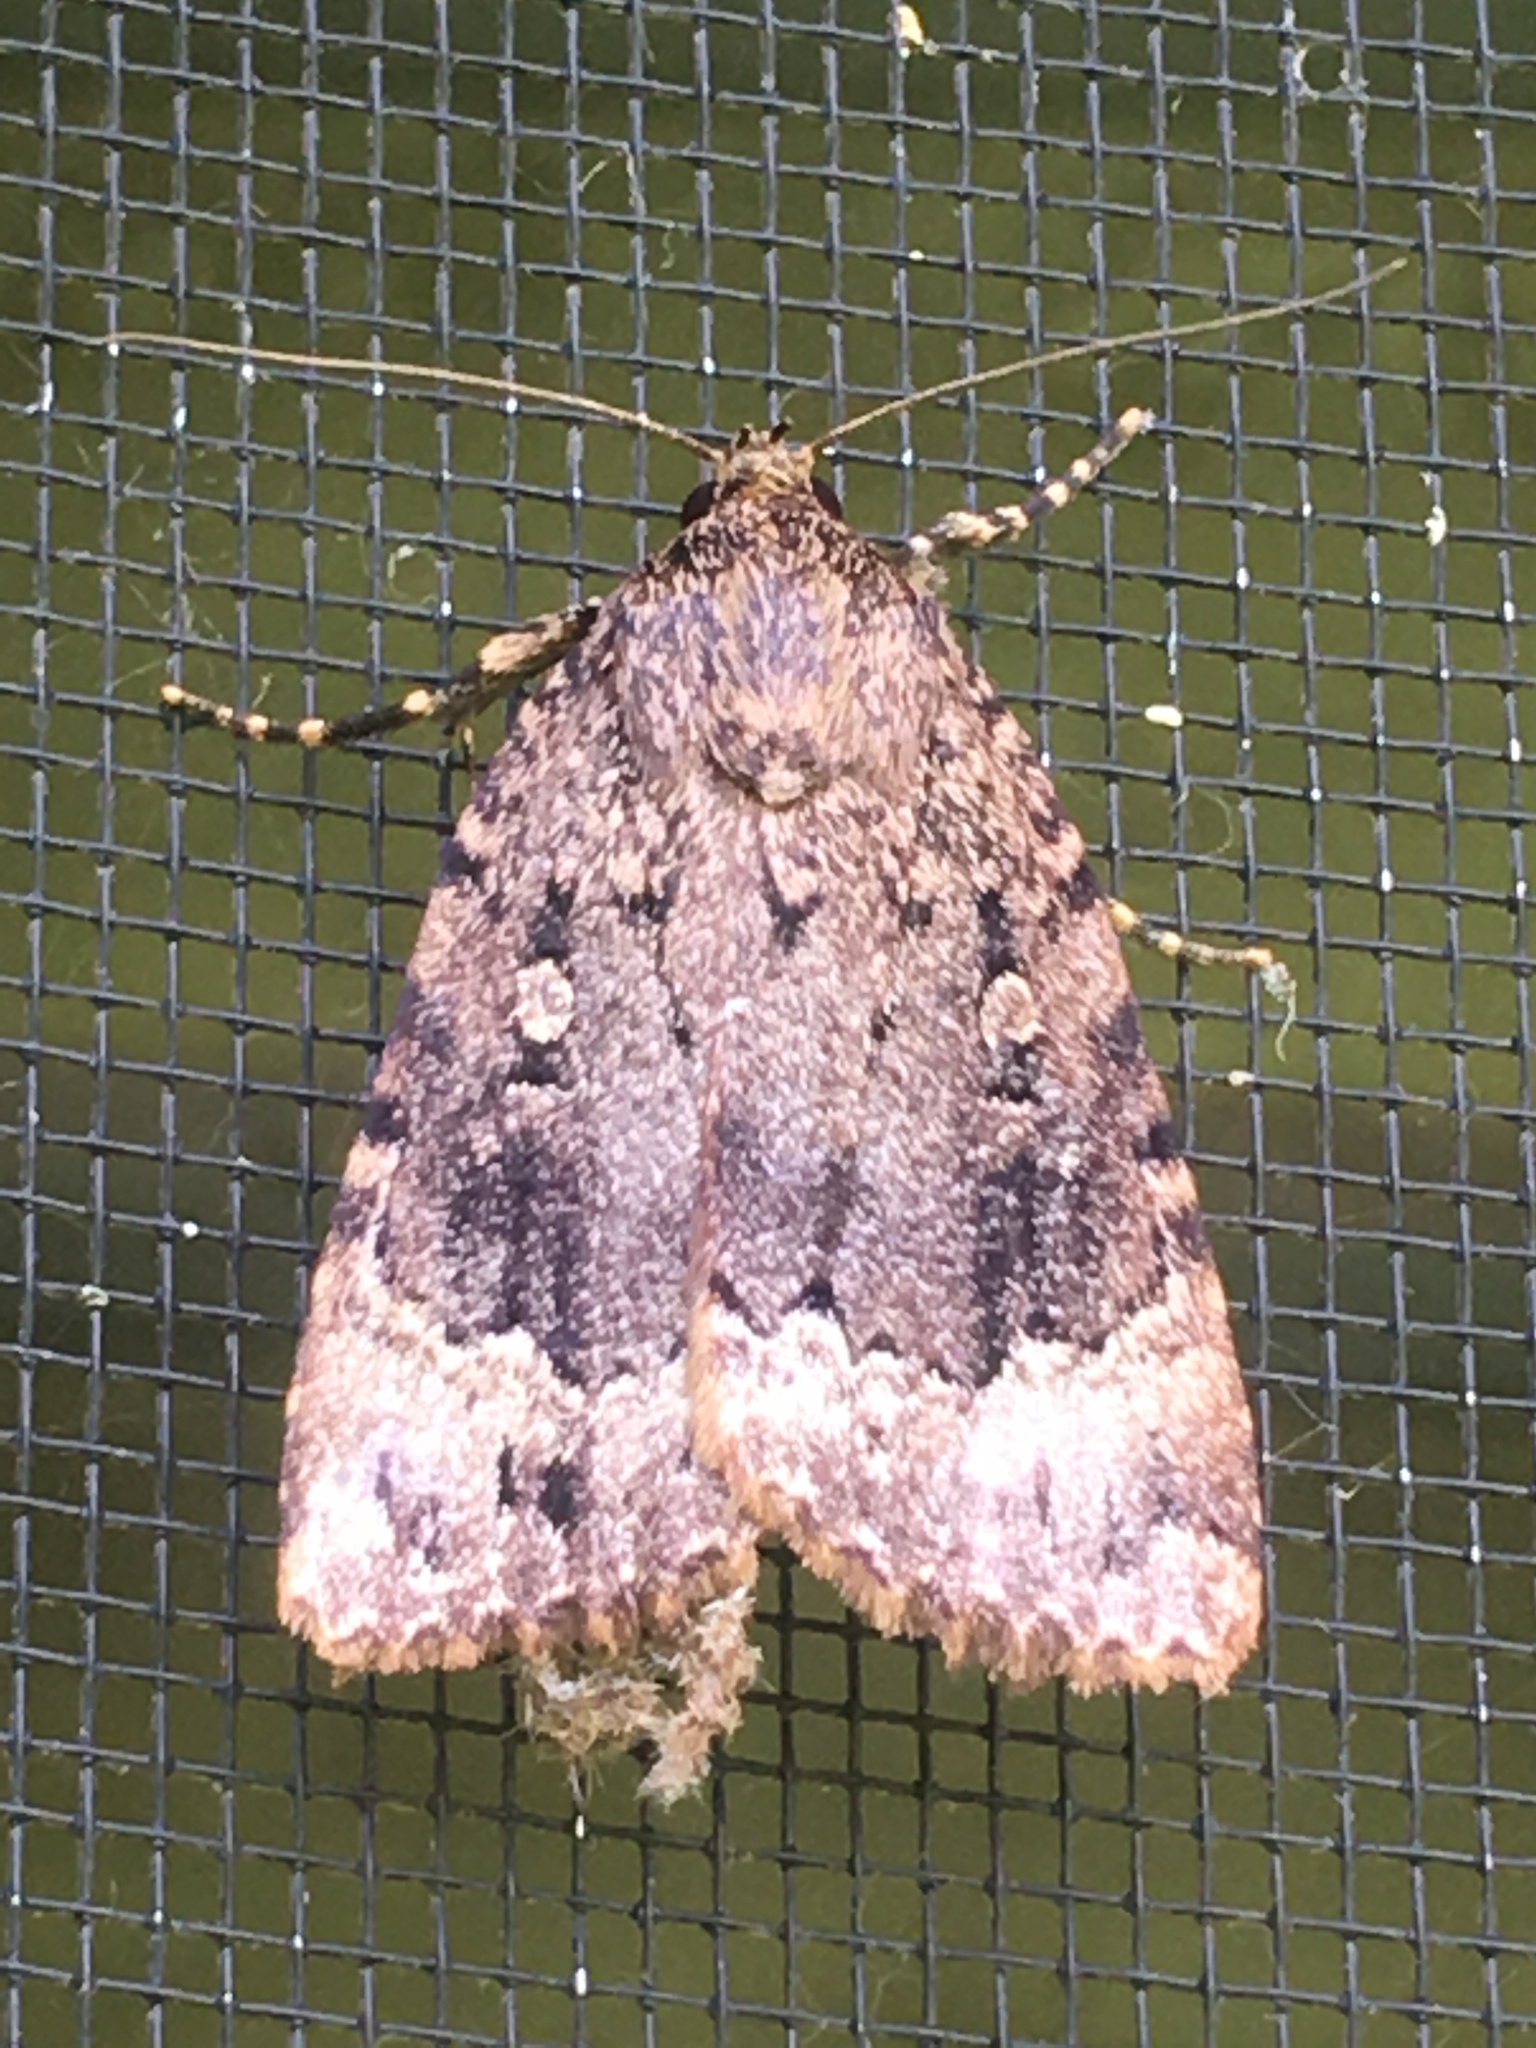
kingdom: Animalia
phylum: Arthropoda
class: Insecta
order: Lepidoptera
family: Noctuidae
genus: Amphipyra
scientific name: Amphipyra pyramidoides
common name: American copper underwing
